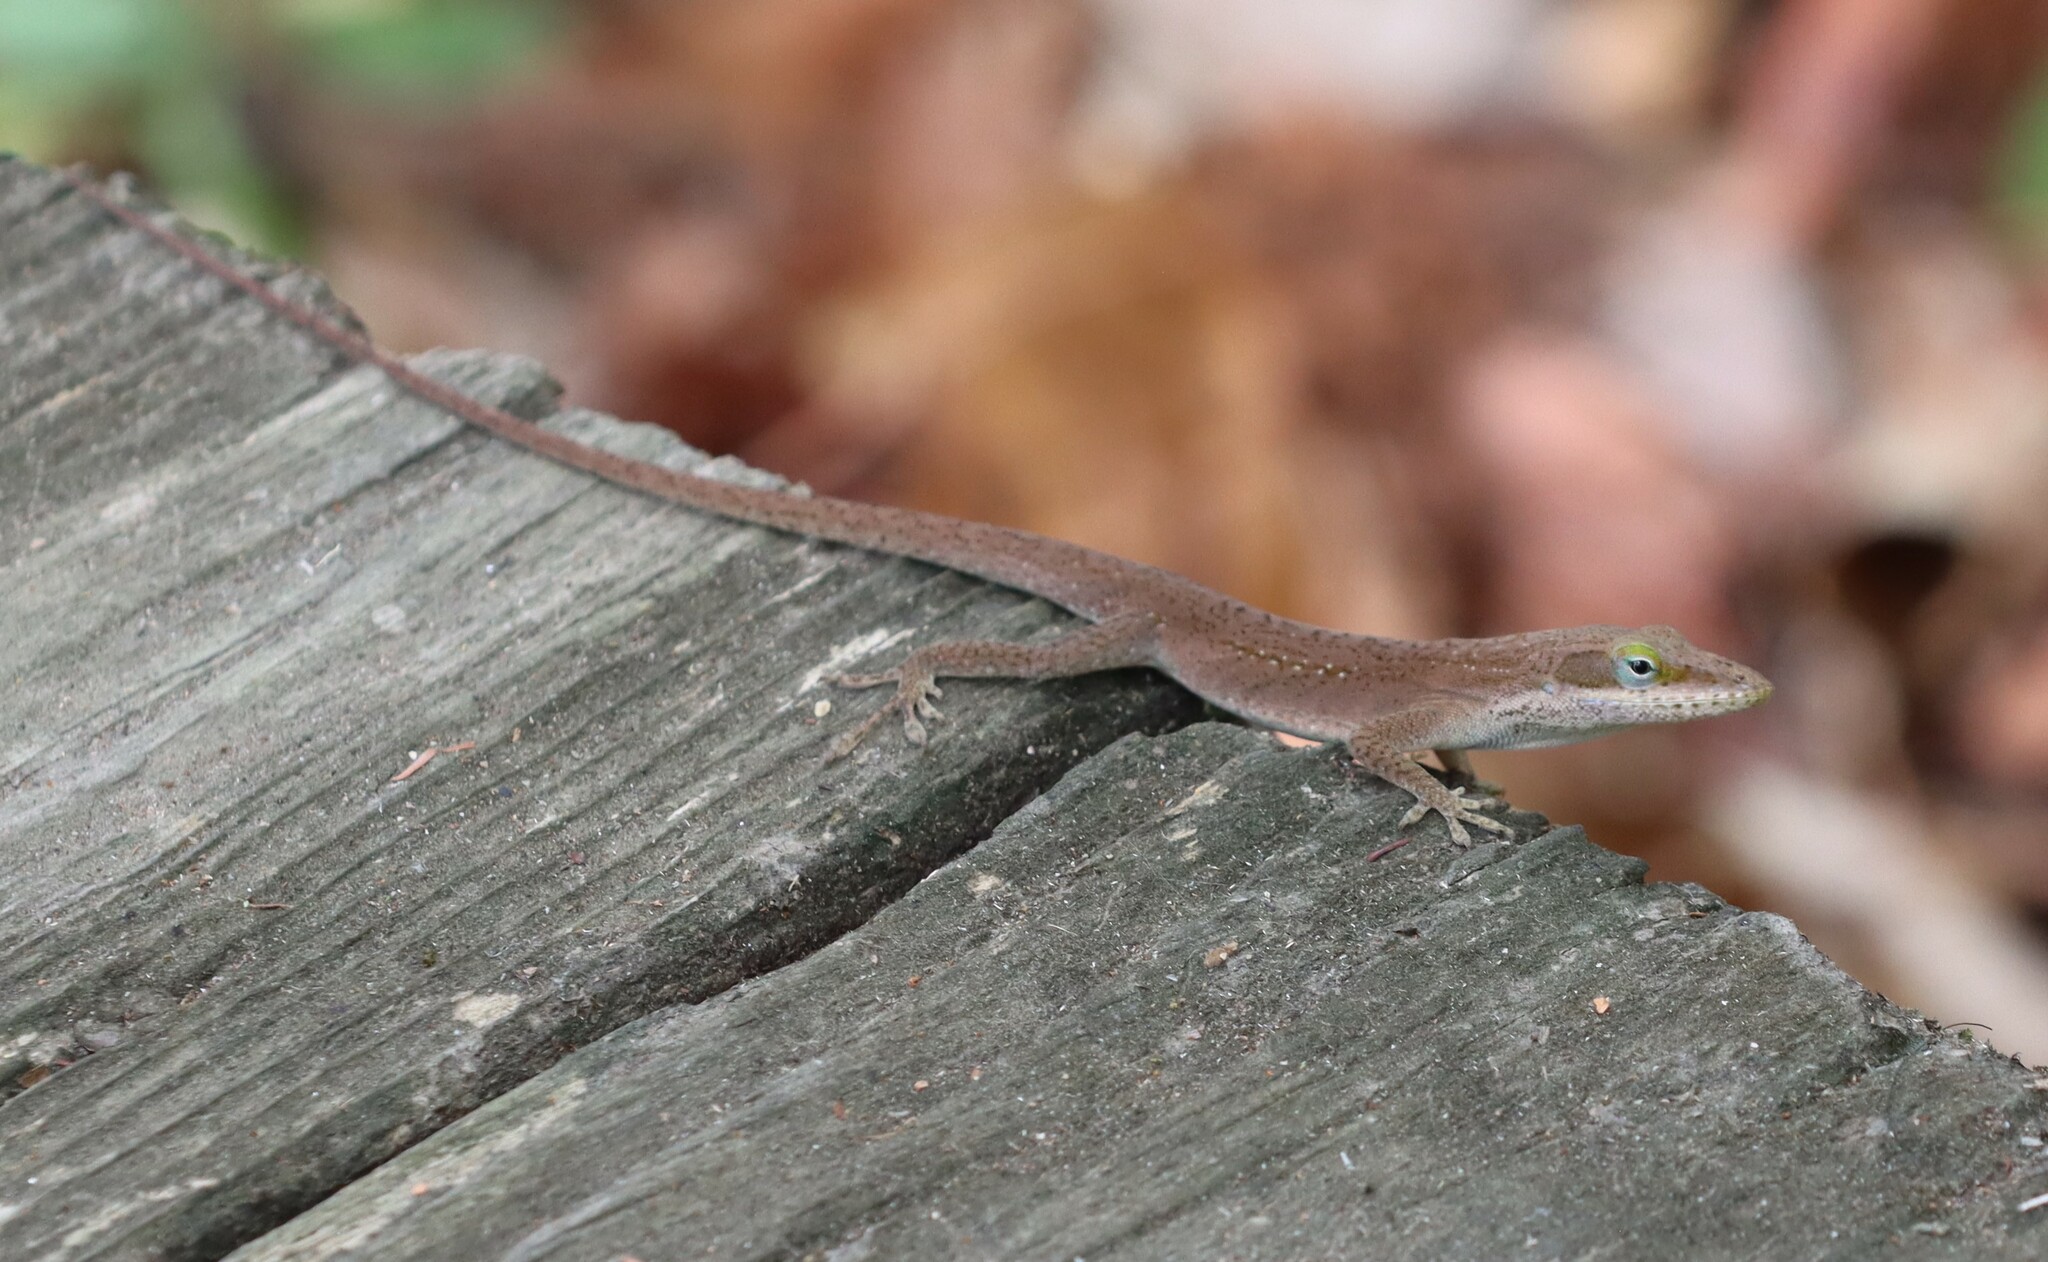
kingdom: Animalia
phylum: Chordata
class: Squamata
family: Dactyloidae
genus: Anolis
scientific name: Anolis carolinensis
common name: Green anole
